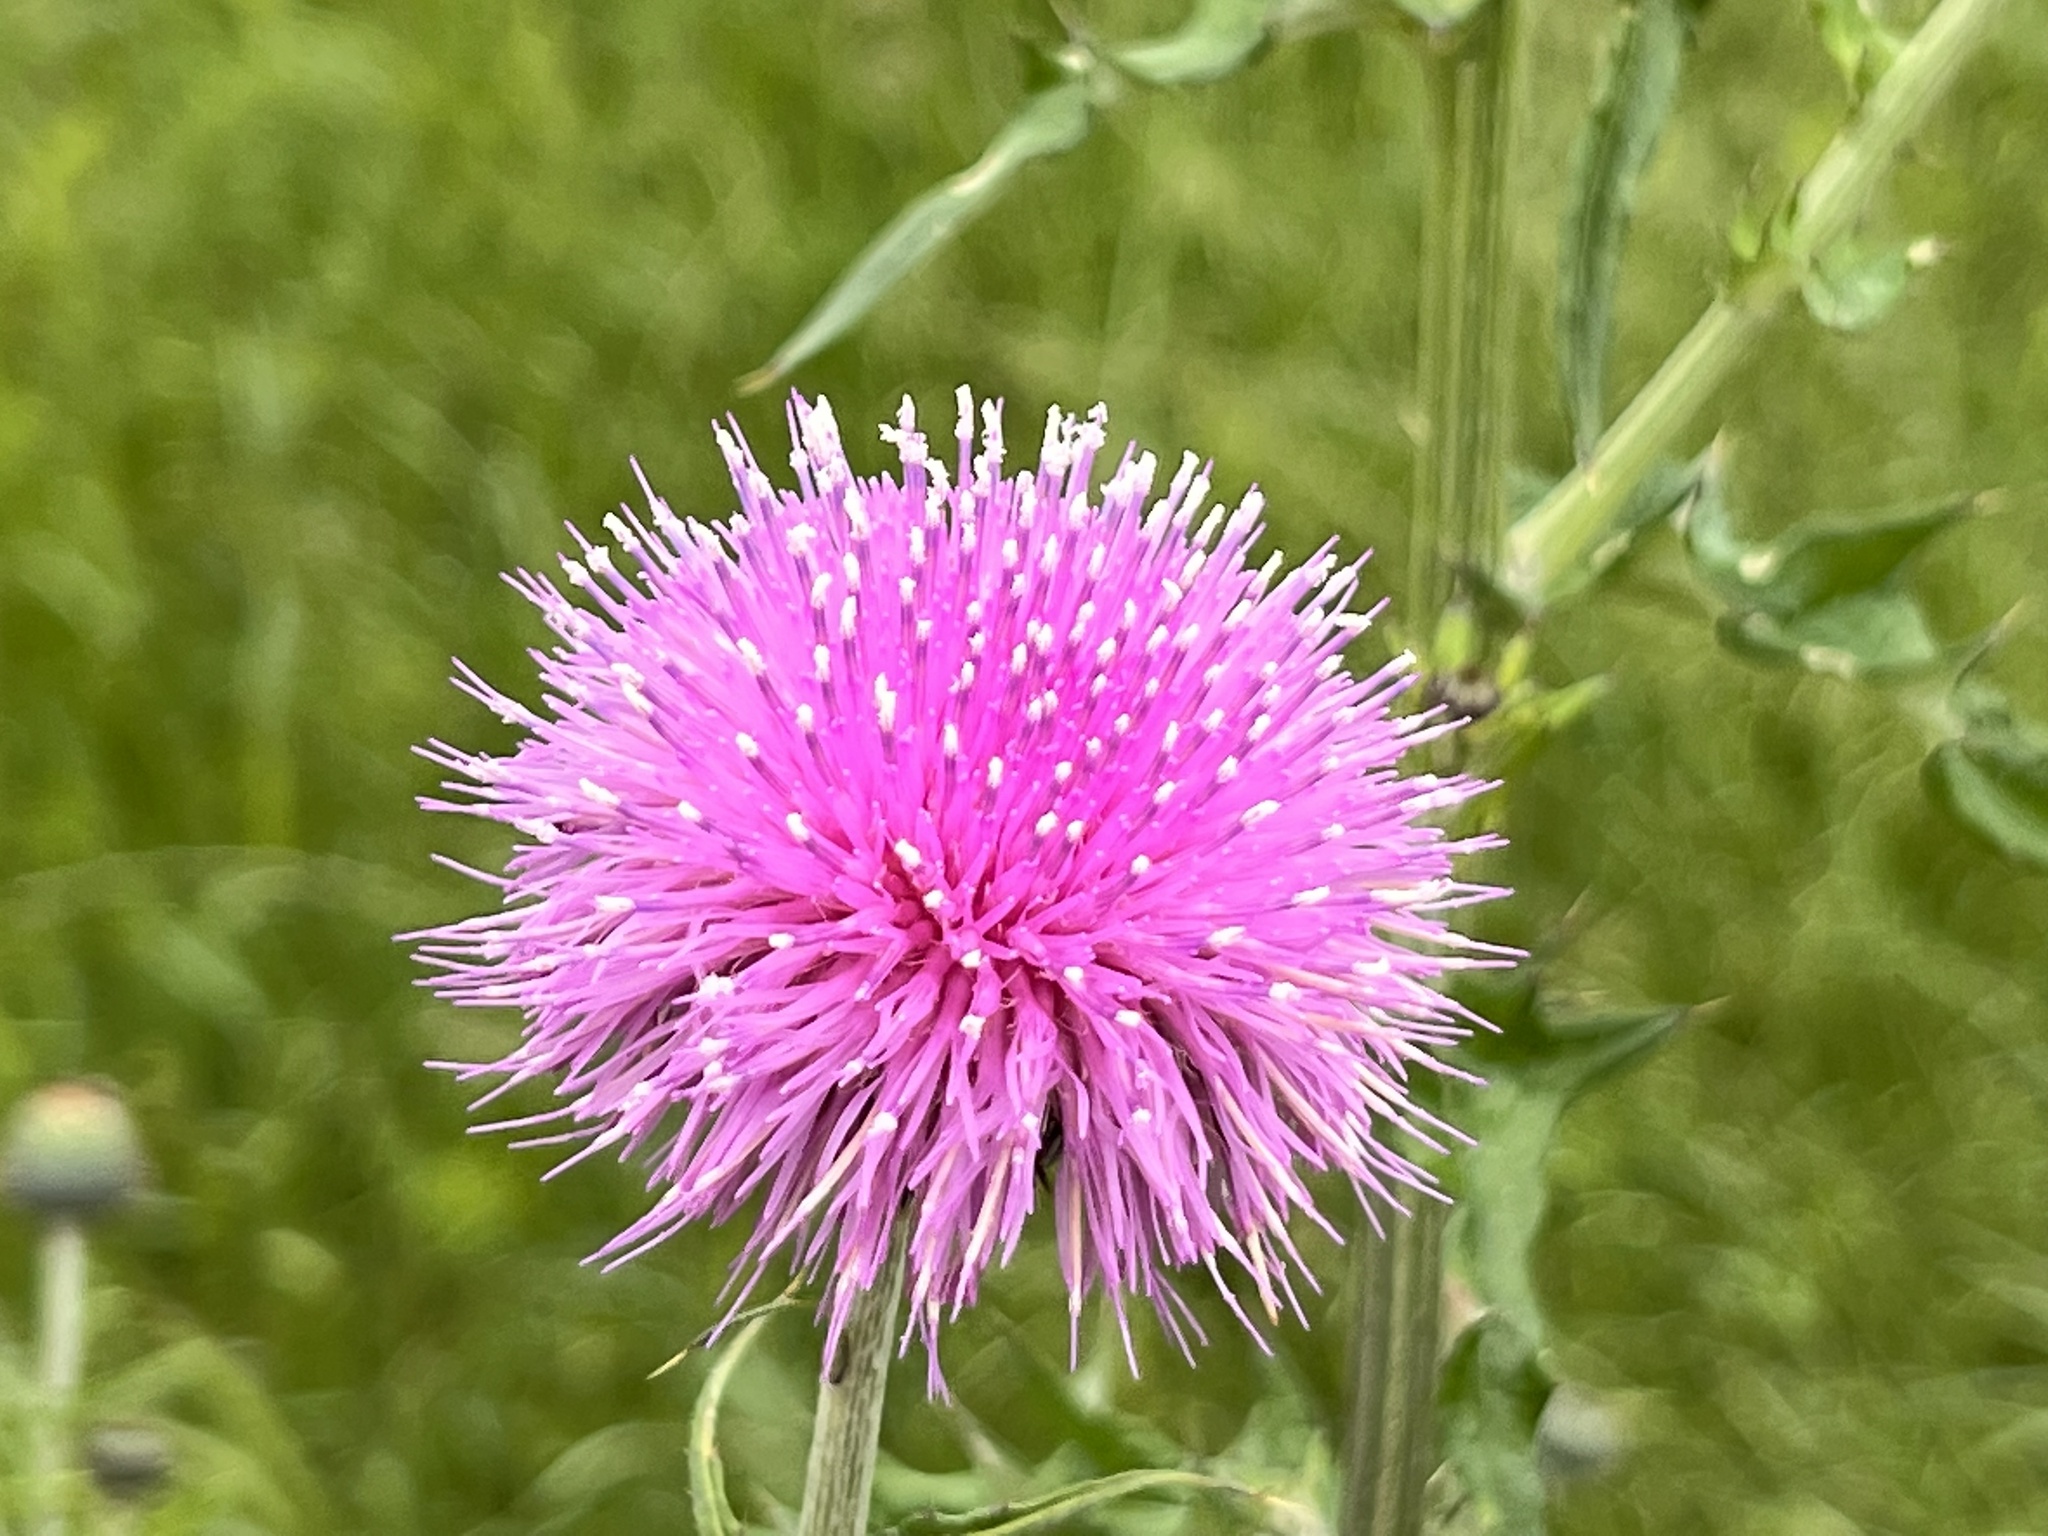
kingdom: Plantae
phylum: Tracheophyta
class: Magnoliopsida
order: Asterales
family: Asteraceae
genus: Cirsium
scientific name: Cirsium texanum
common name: Texas purple thistle
